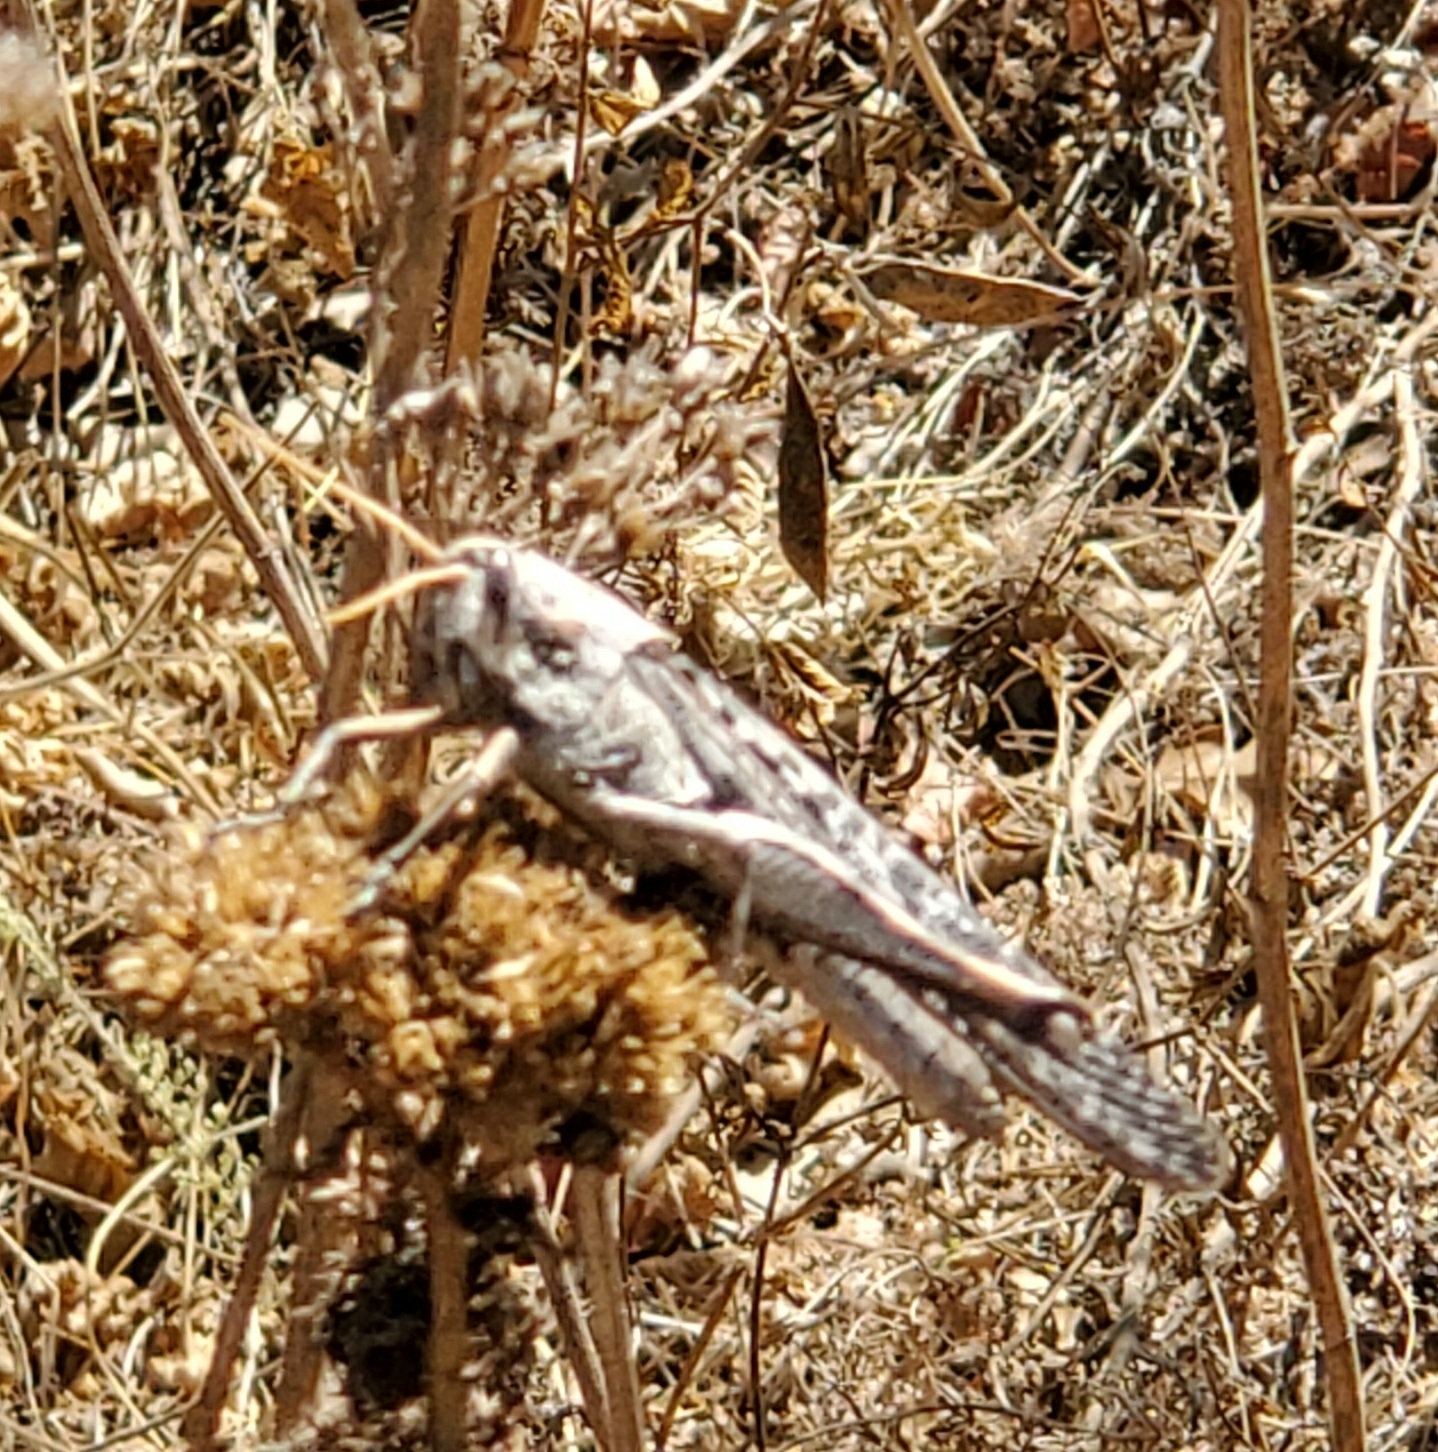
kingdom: Animalia
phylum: Arthropoda
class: Insecta
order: Orthoptera
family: Acrididae
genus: Schistocerca
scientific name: Schistocerca nitens
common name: Vagrant grasshopper
